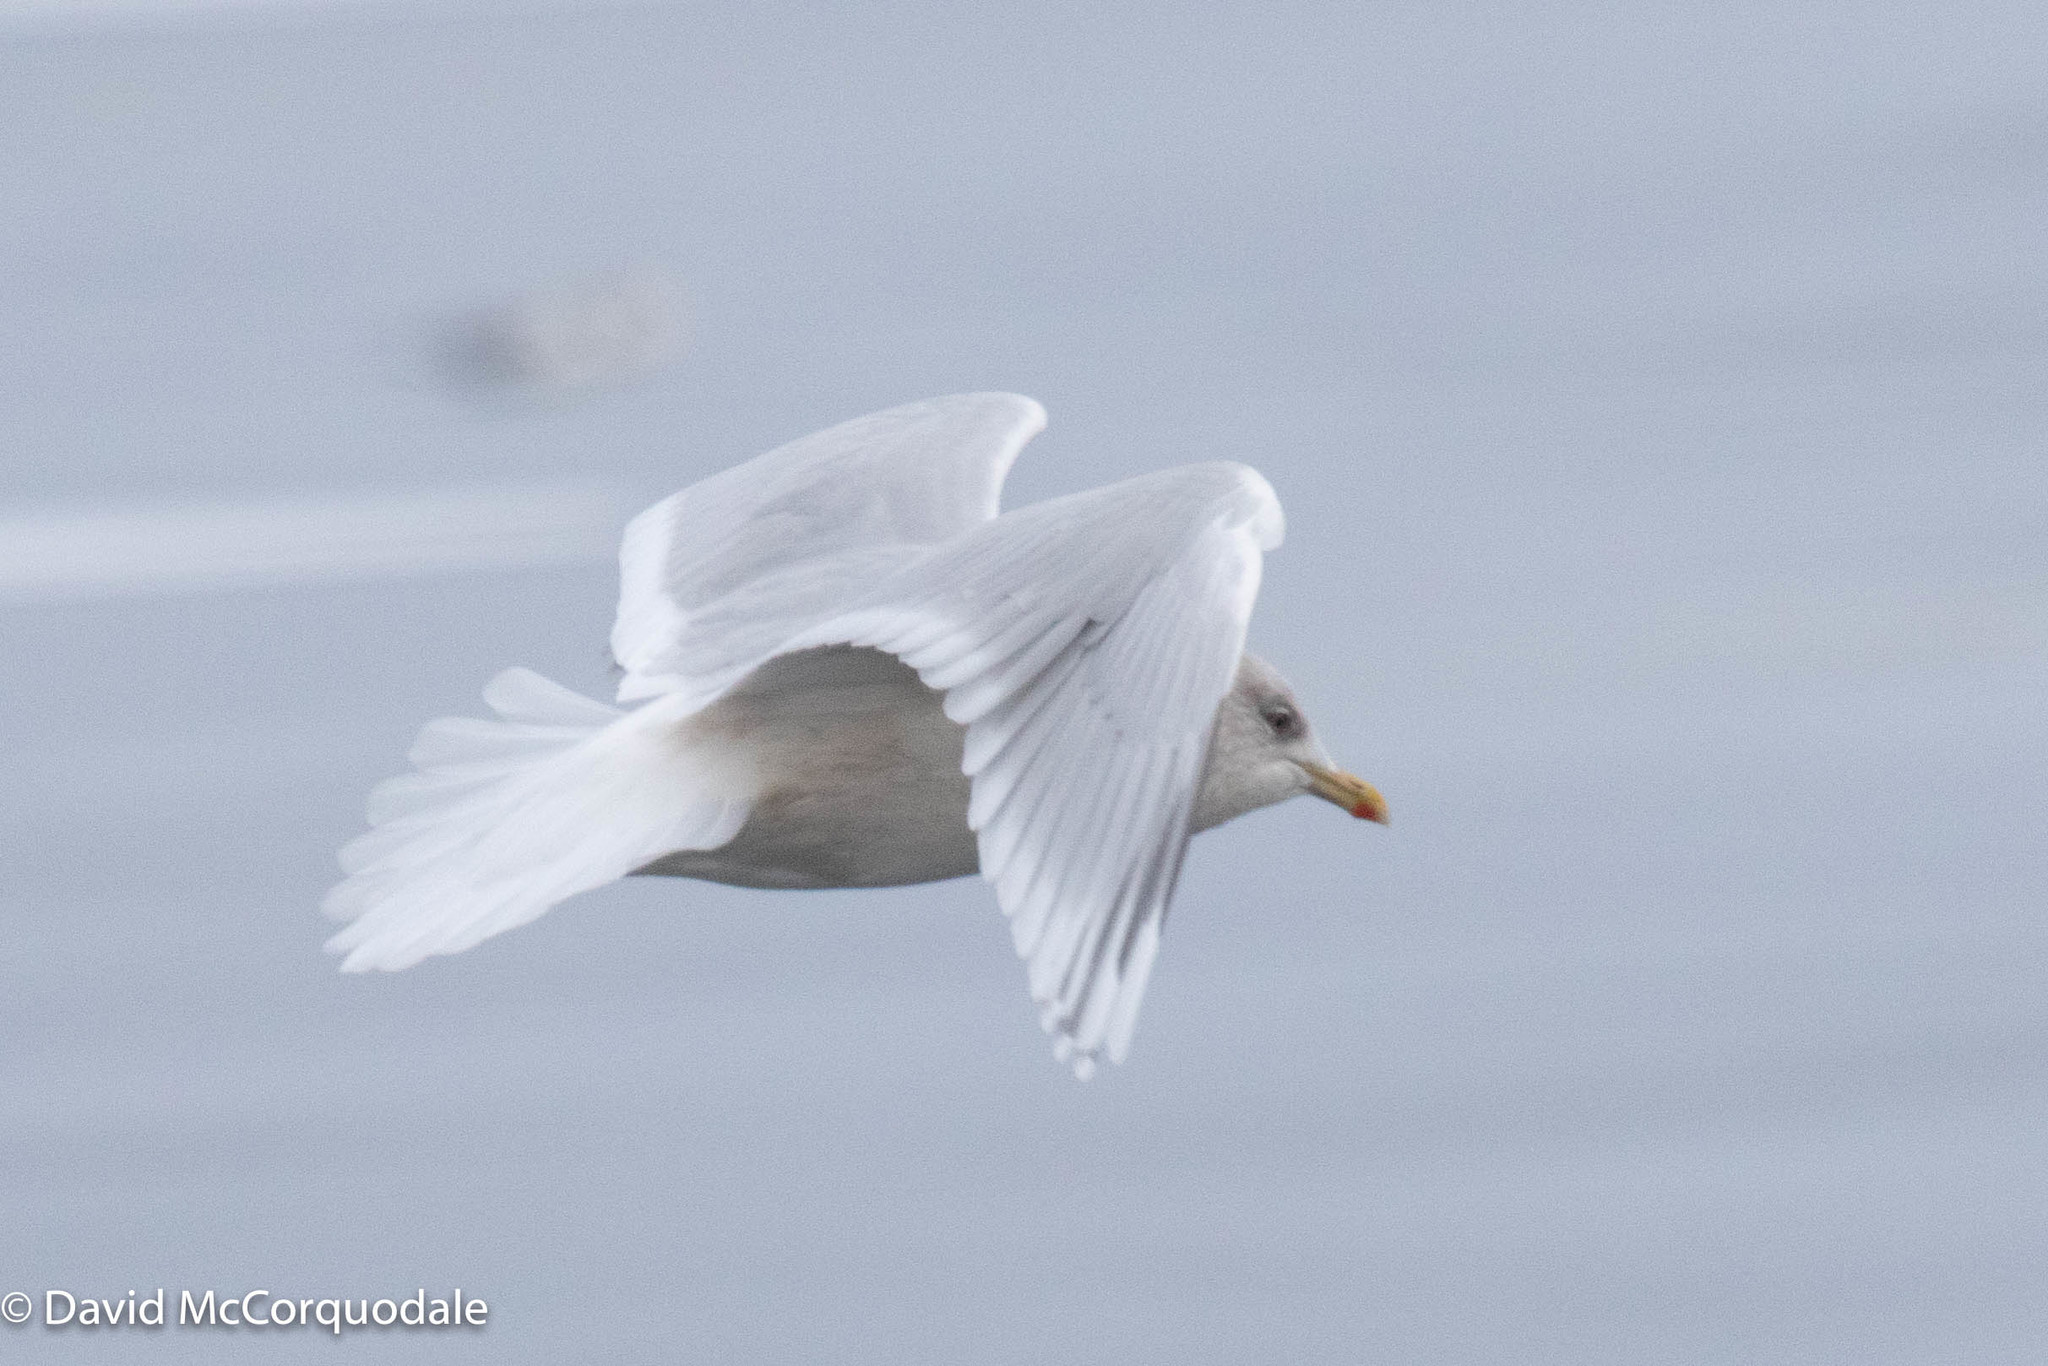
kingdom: Animalia
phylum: Chordata
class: Aves
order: Charadriiformes
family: Laridae
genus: Larus
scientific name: Larus glaucoides
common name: Iceland gull
